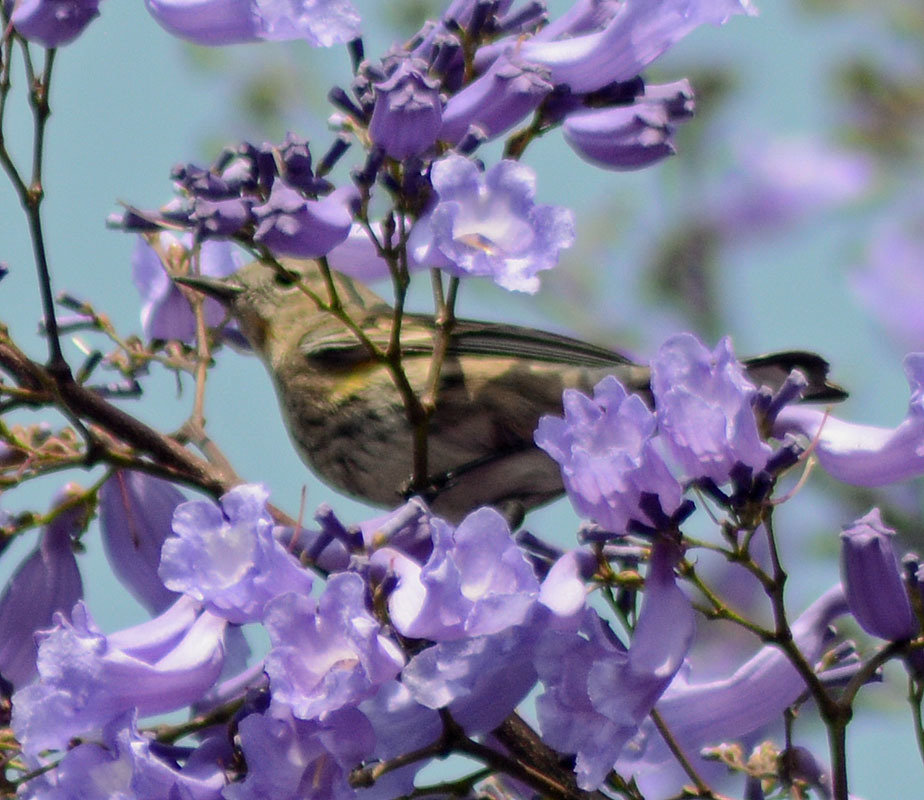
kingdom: Animalia
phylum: Chordata
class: Aves
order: Passeriformes
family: Parulidae
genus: Setophaga
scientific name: Setophaga coronata
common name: Myrtle warbler
